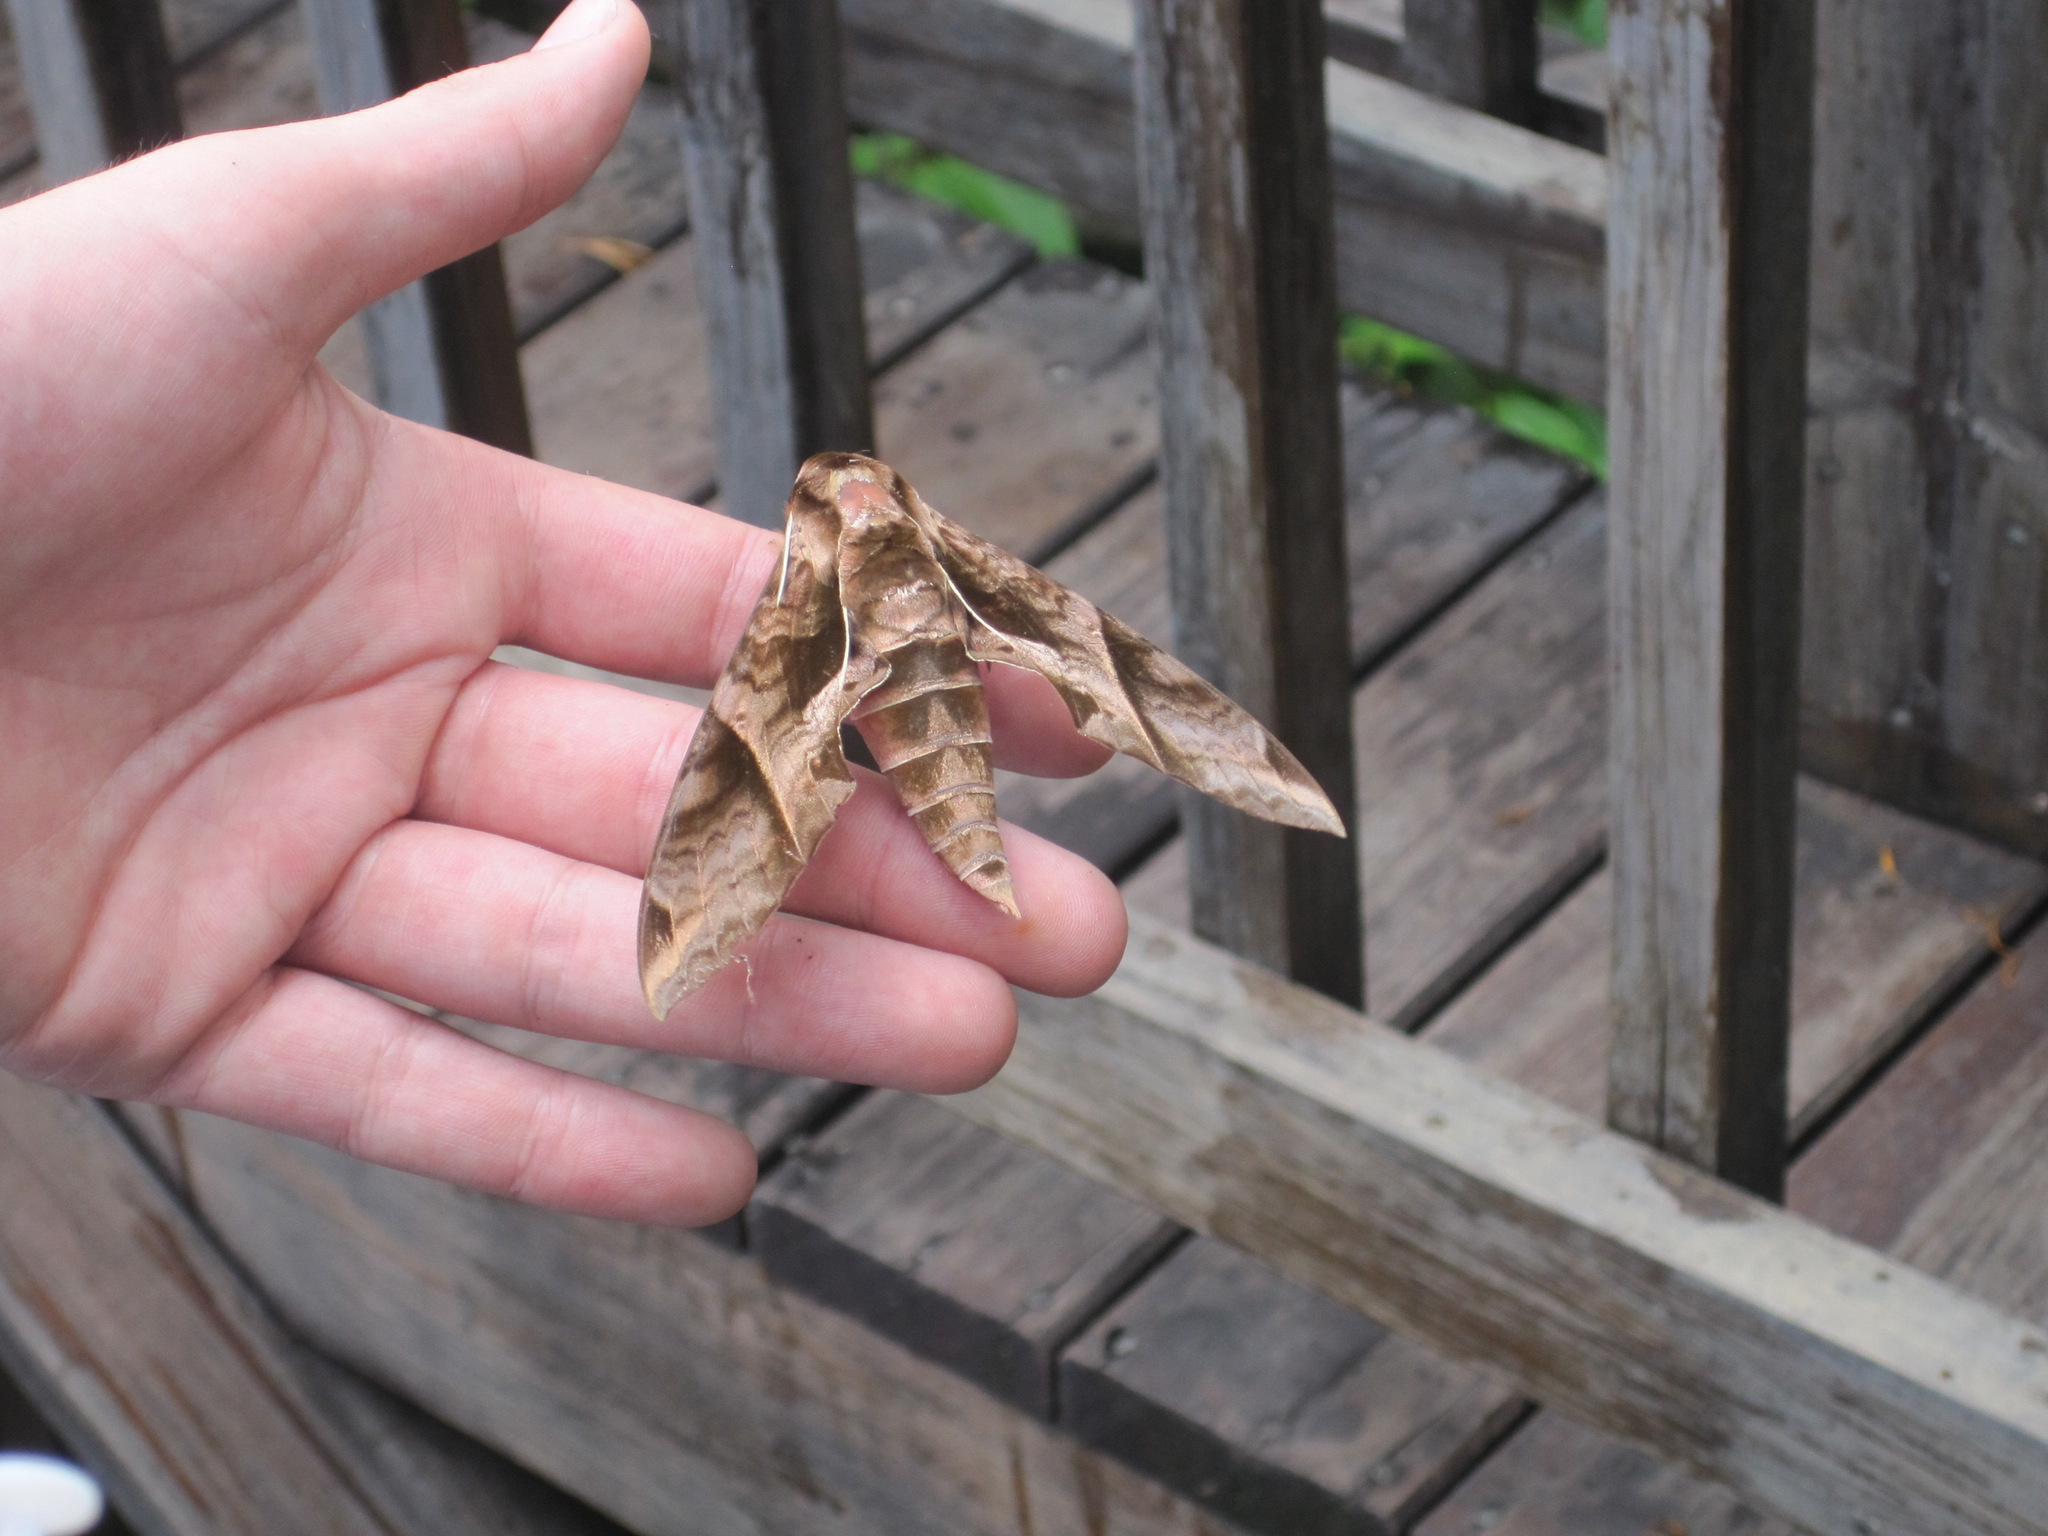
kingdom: Animalia
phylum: Arthropoda
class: Insecta
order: Lepidoptera
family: Sphingidae
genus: Eumorpha
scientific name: Eumorpha anchemolus
